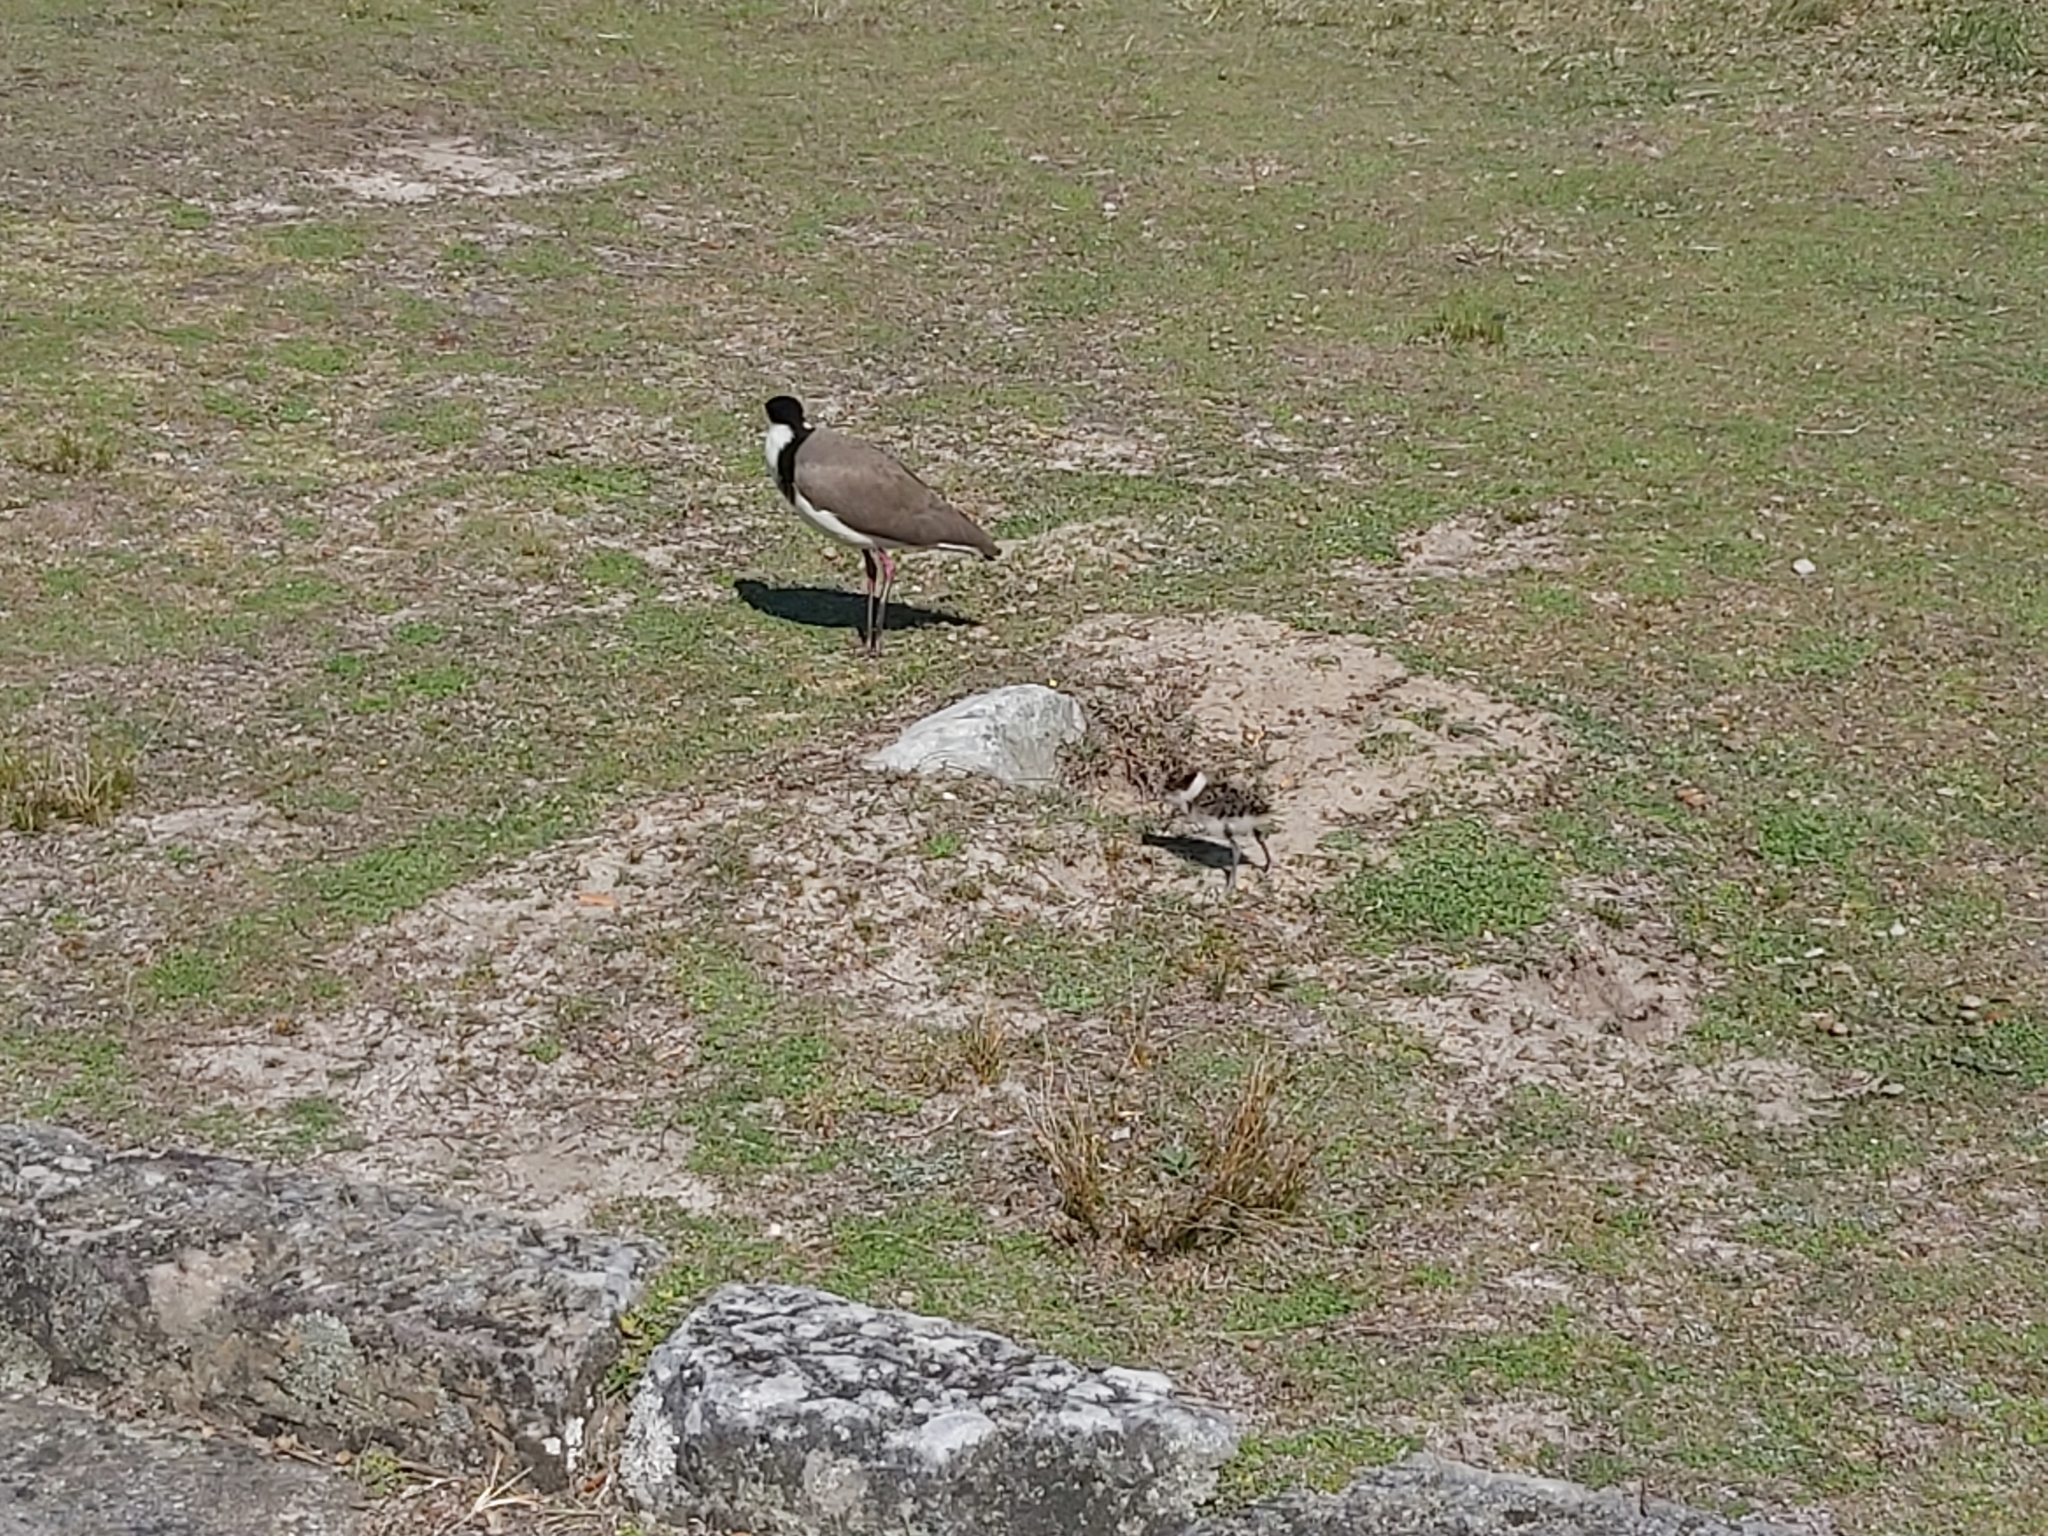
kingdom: Animalia
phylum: Chordata
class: Aves
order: Charadriiformes
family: Charadriidae
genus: Vanellus
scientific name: Vanellus miles
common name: Masked lapwing
